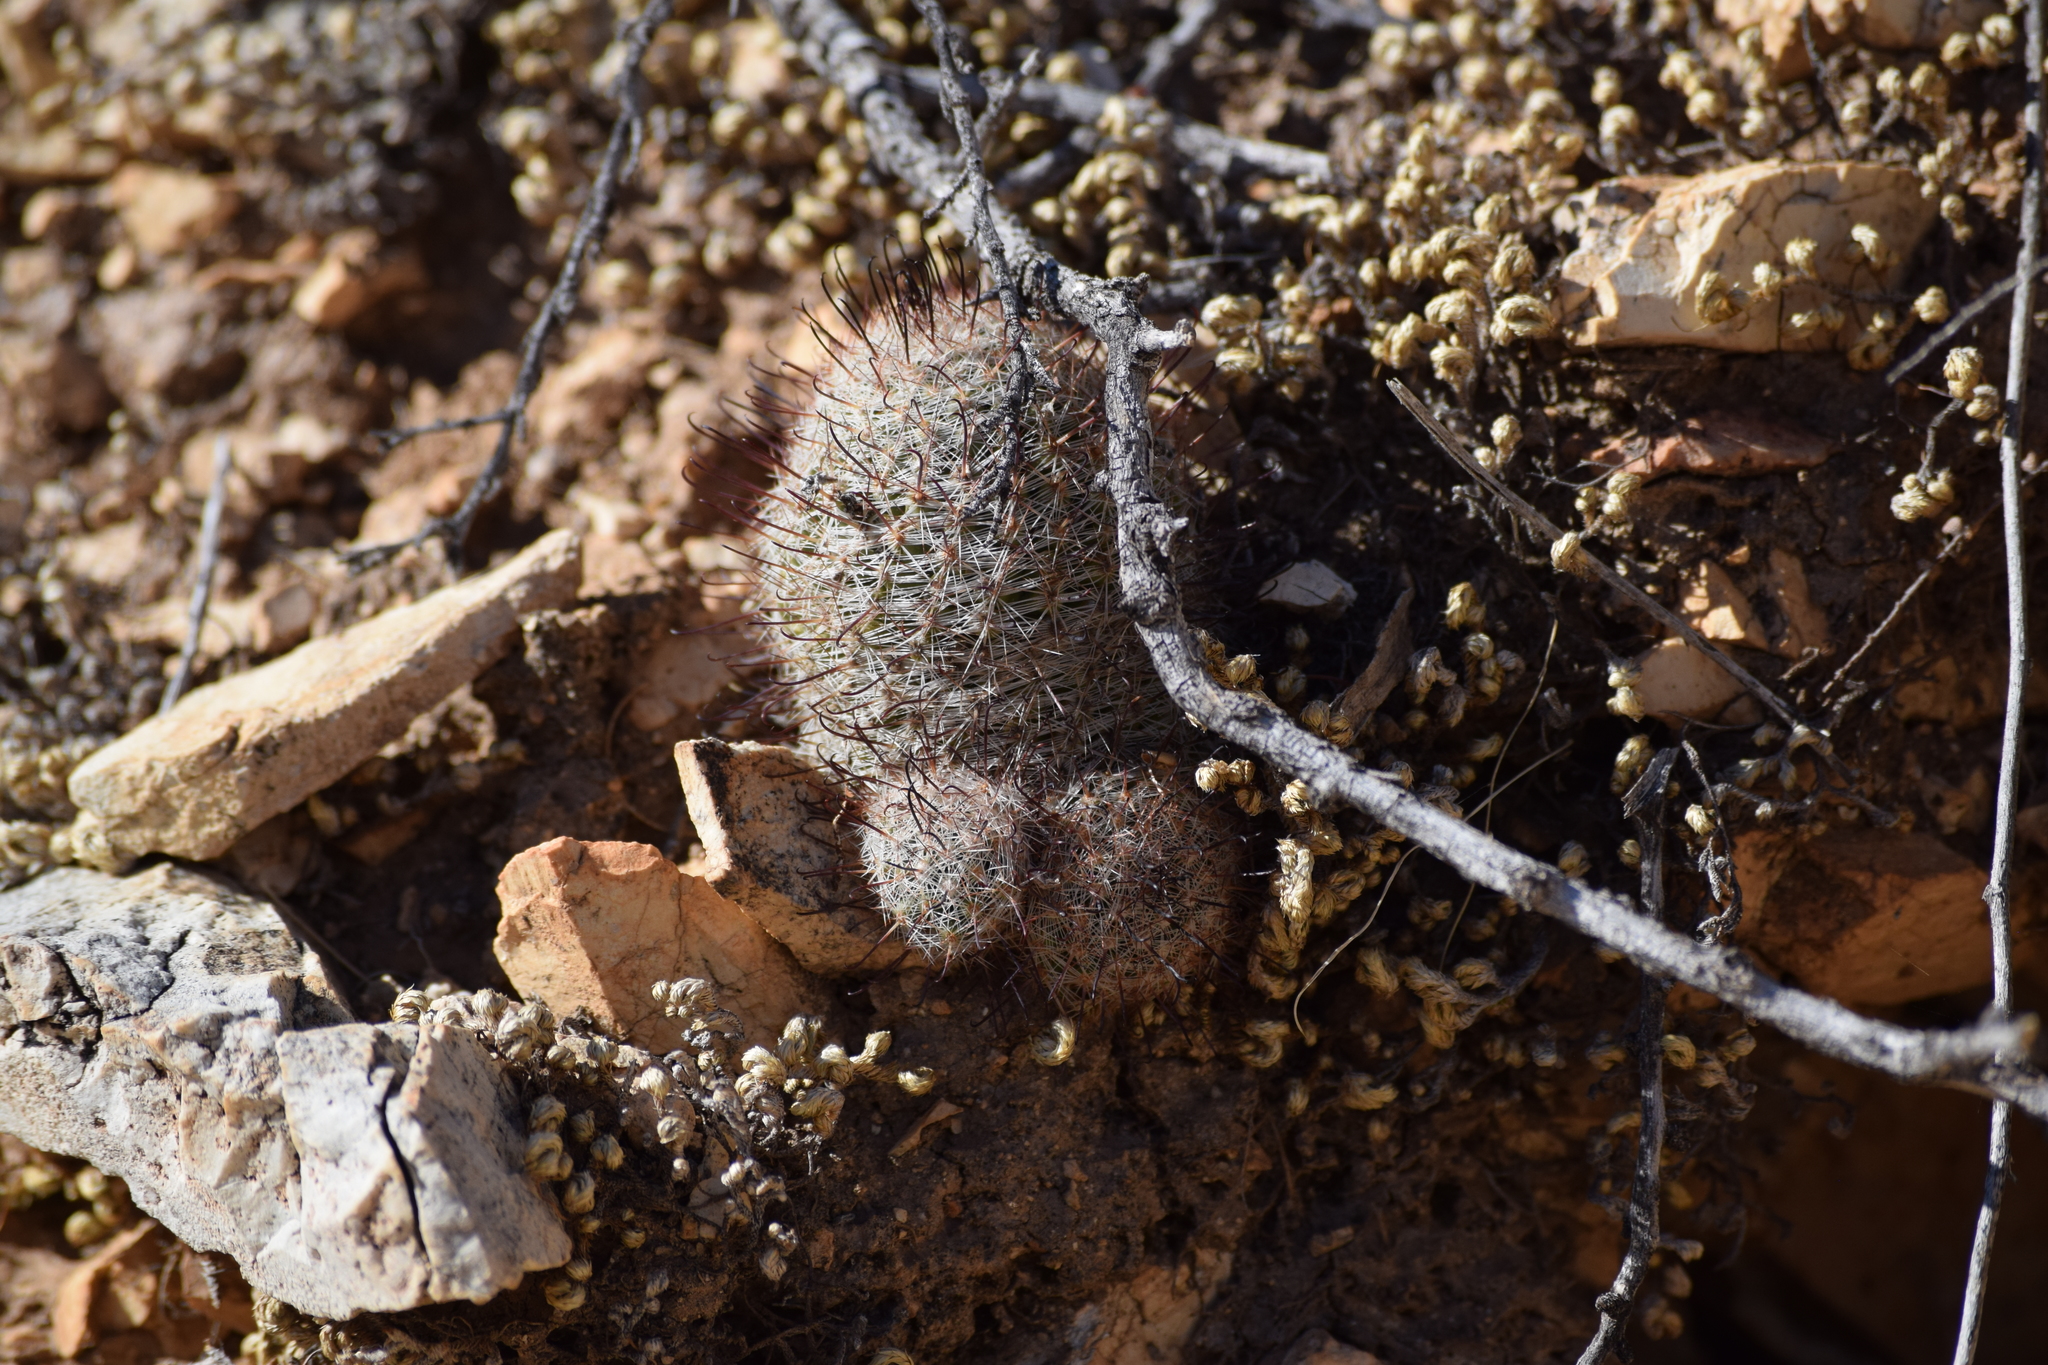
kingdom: Plantae
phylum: Tracheophyta
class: Magnoliopsida
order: Caryophyllales
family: Cactaceae
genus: Cochemiea
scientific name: Cochemiea grahamii
